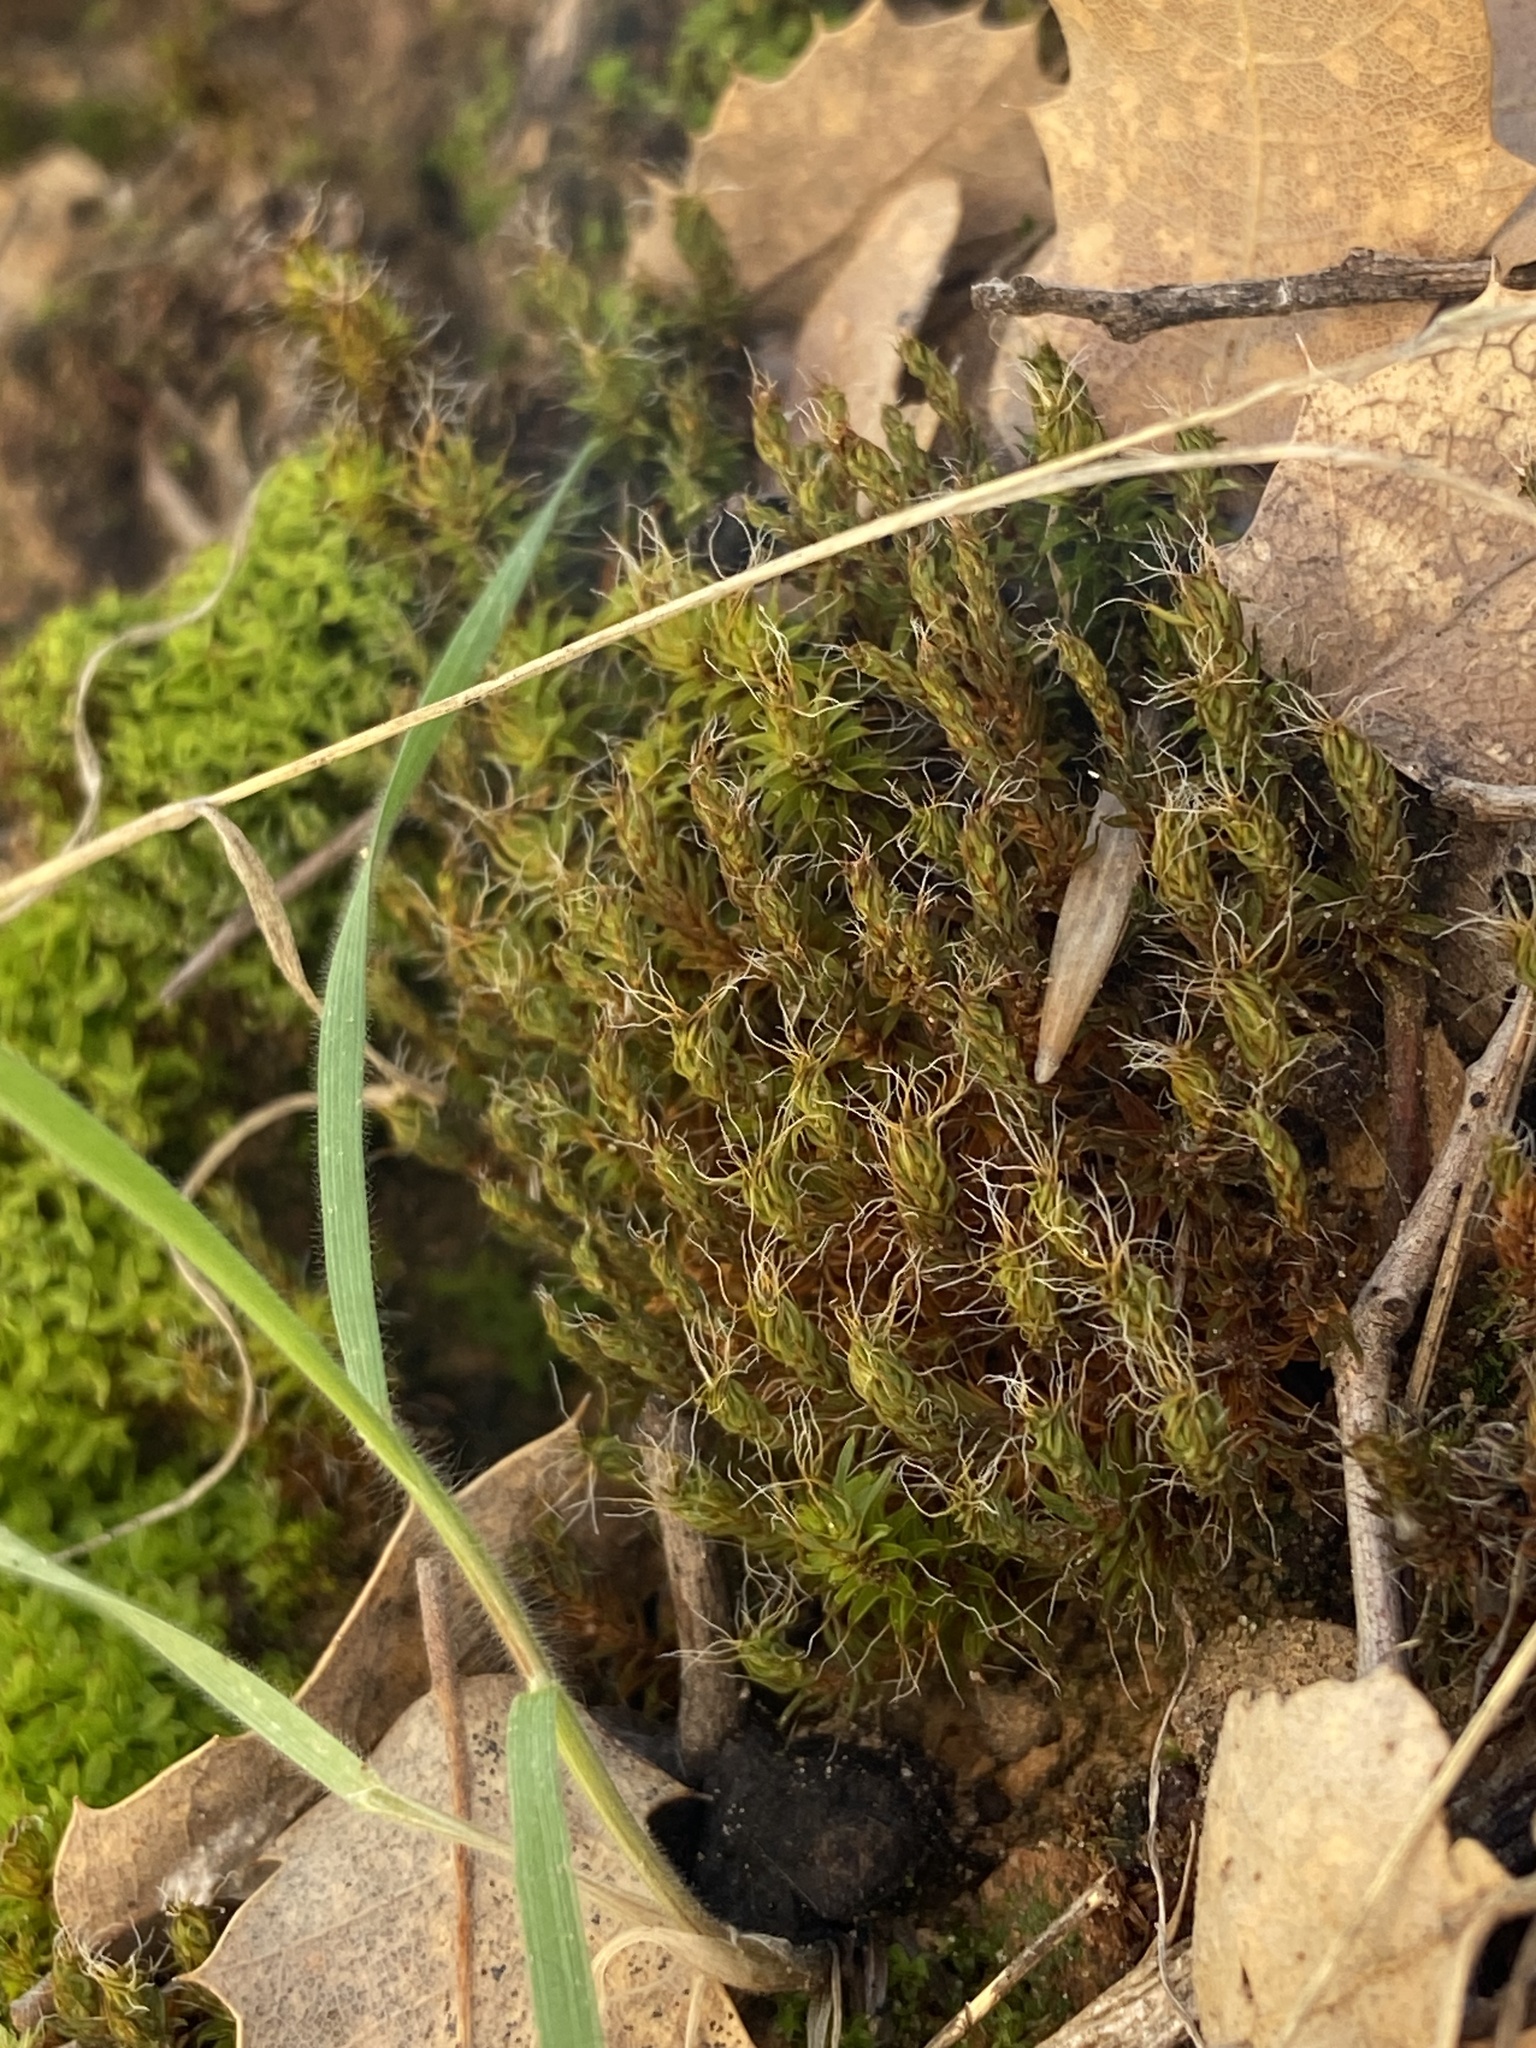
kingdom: Plantae
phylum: Bryophyta
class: Bryopsida
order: Pottiales
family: Pottiaceae
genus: Syntrichia
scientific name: Syntrichia ruralis
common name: Sidewalk screw moss
